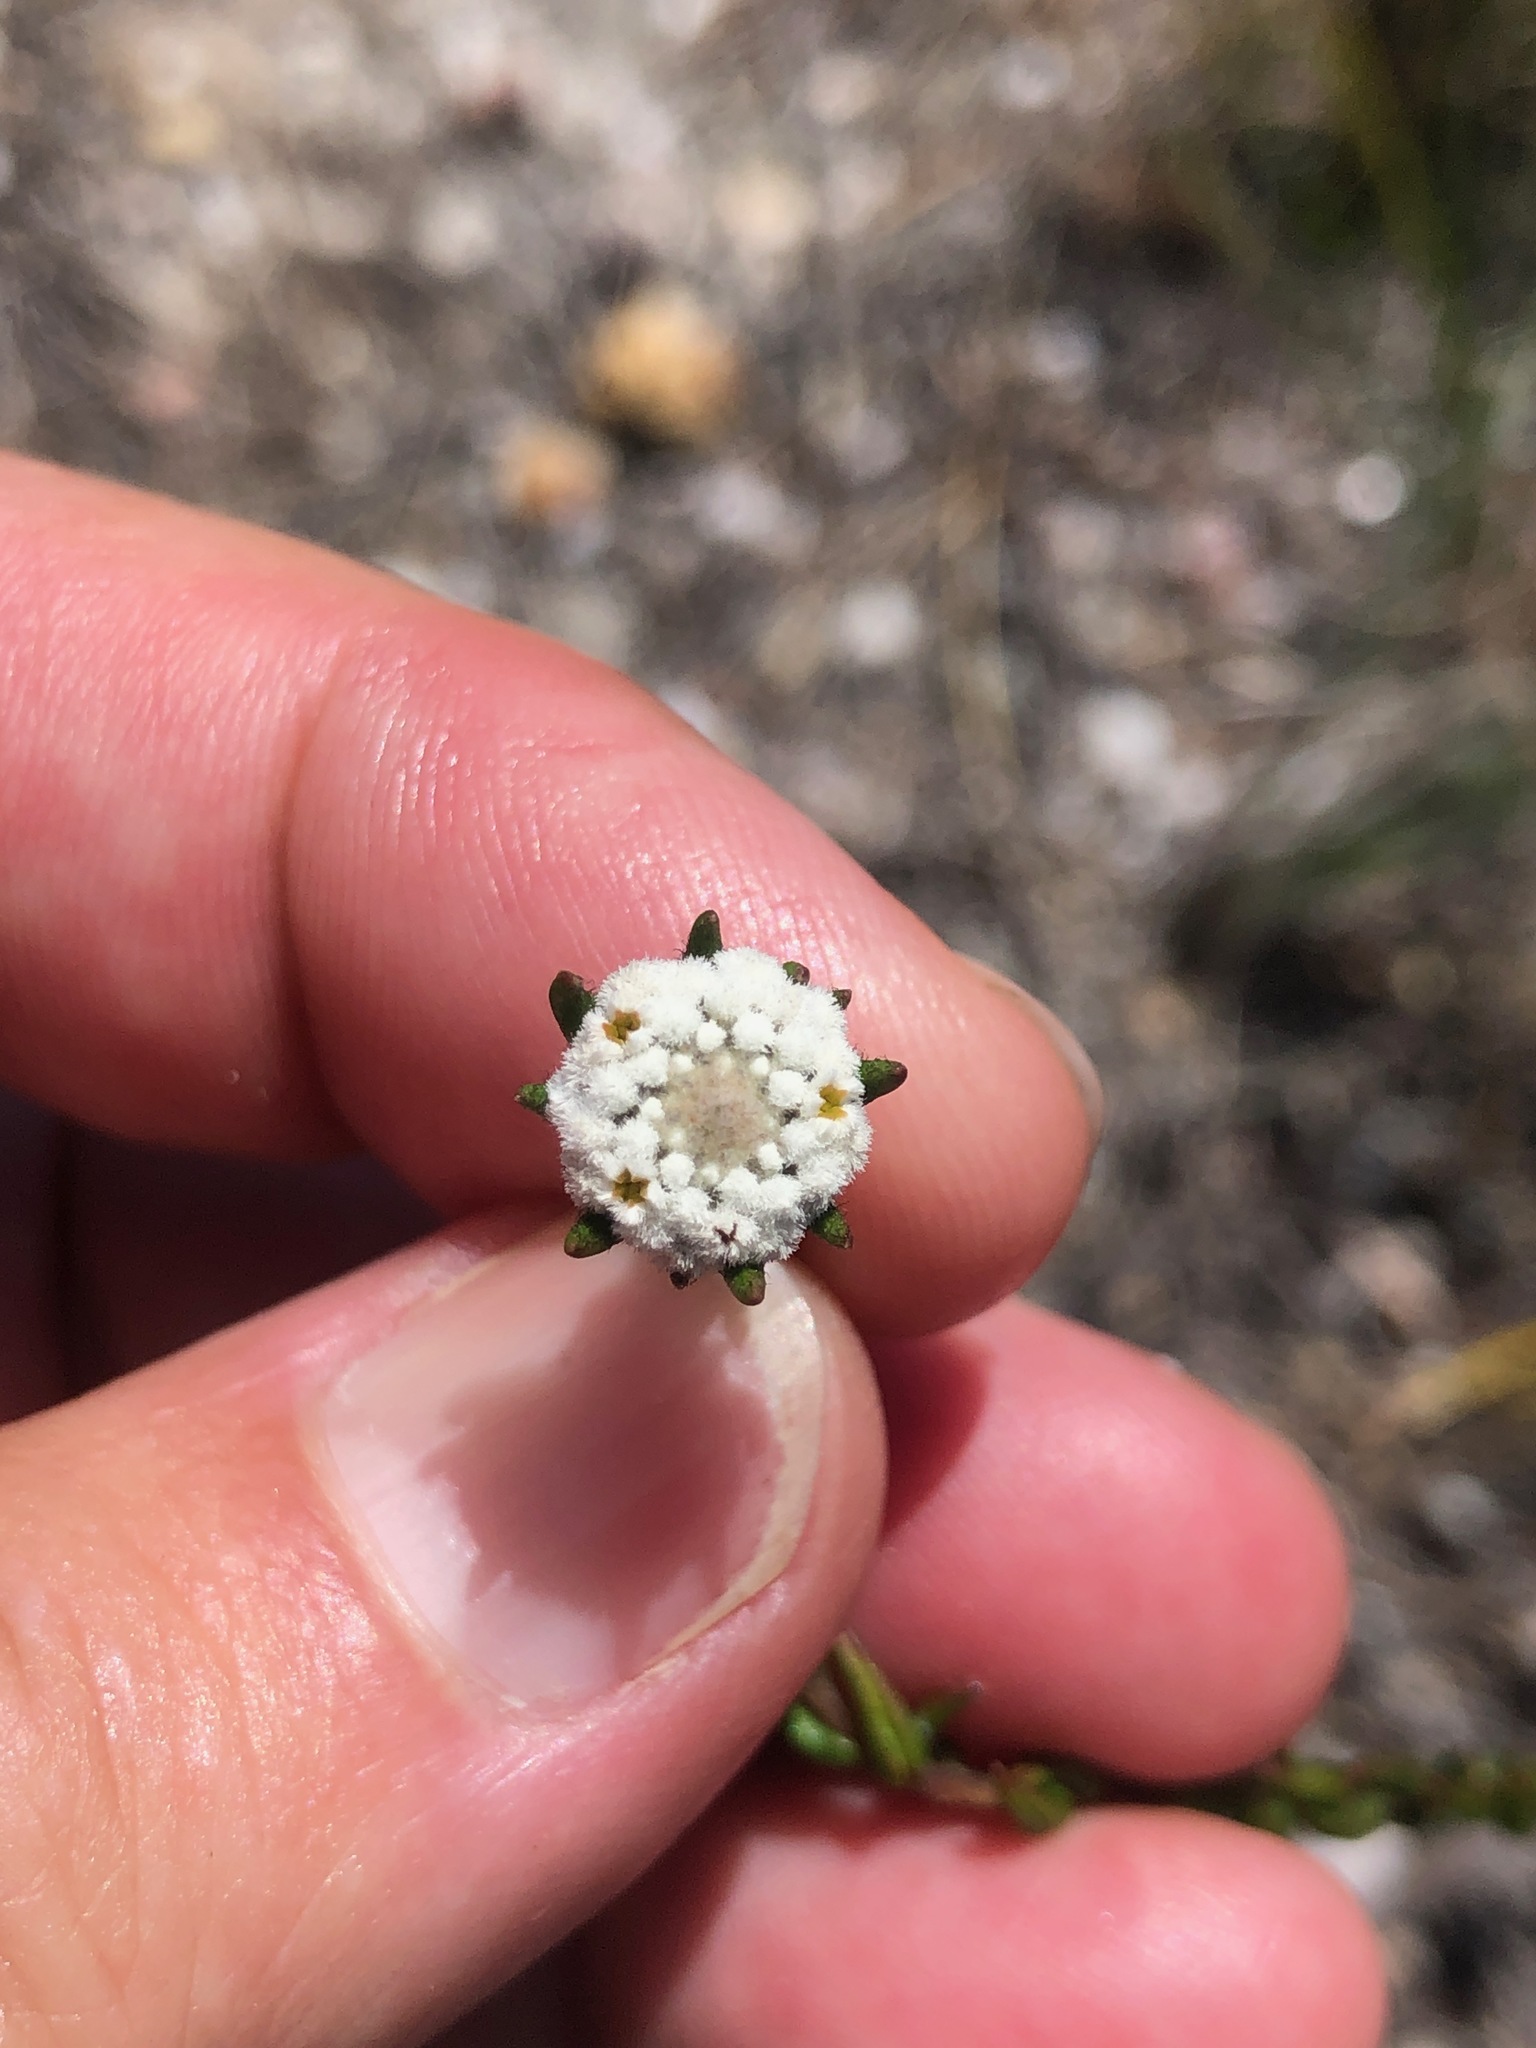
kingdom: Plantae
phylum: Tracheophyta
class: Magnoliopsida
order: Rosales
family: Rhamnaceae
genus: Phylica
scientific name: Phylica disticha
